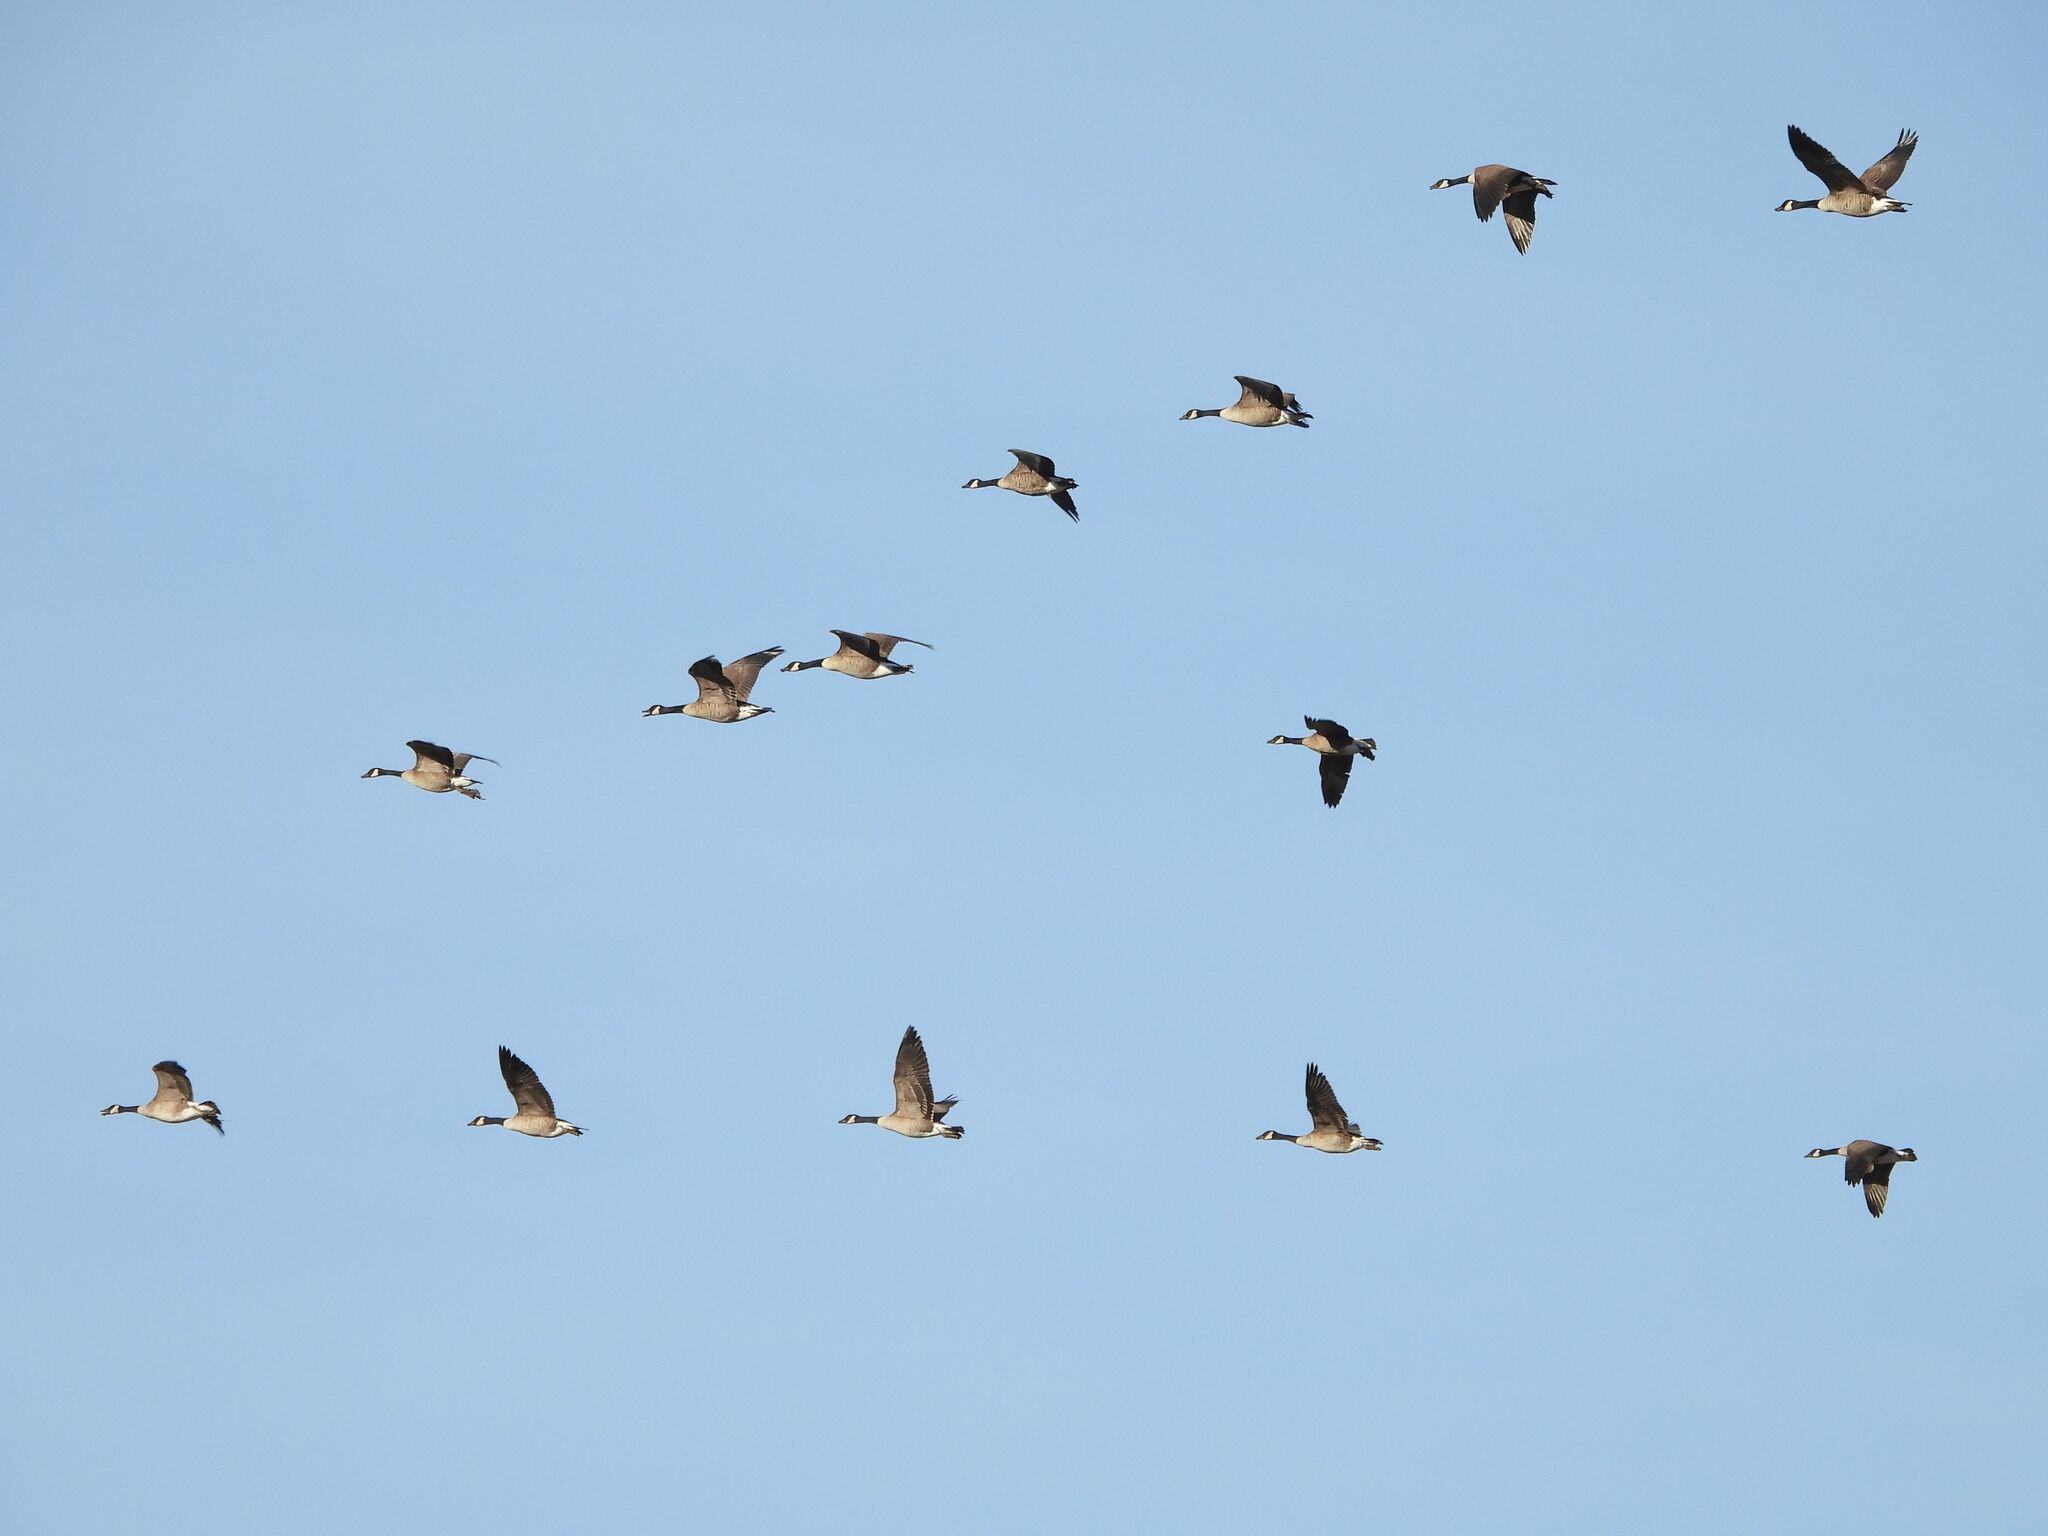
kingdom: Animalia
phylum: Chordata
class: Aves
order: Anseriformes
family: Anatidae
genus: Branta
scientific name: Branta canadensis
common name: Canada goose
